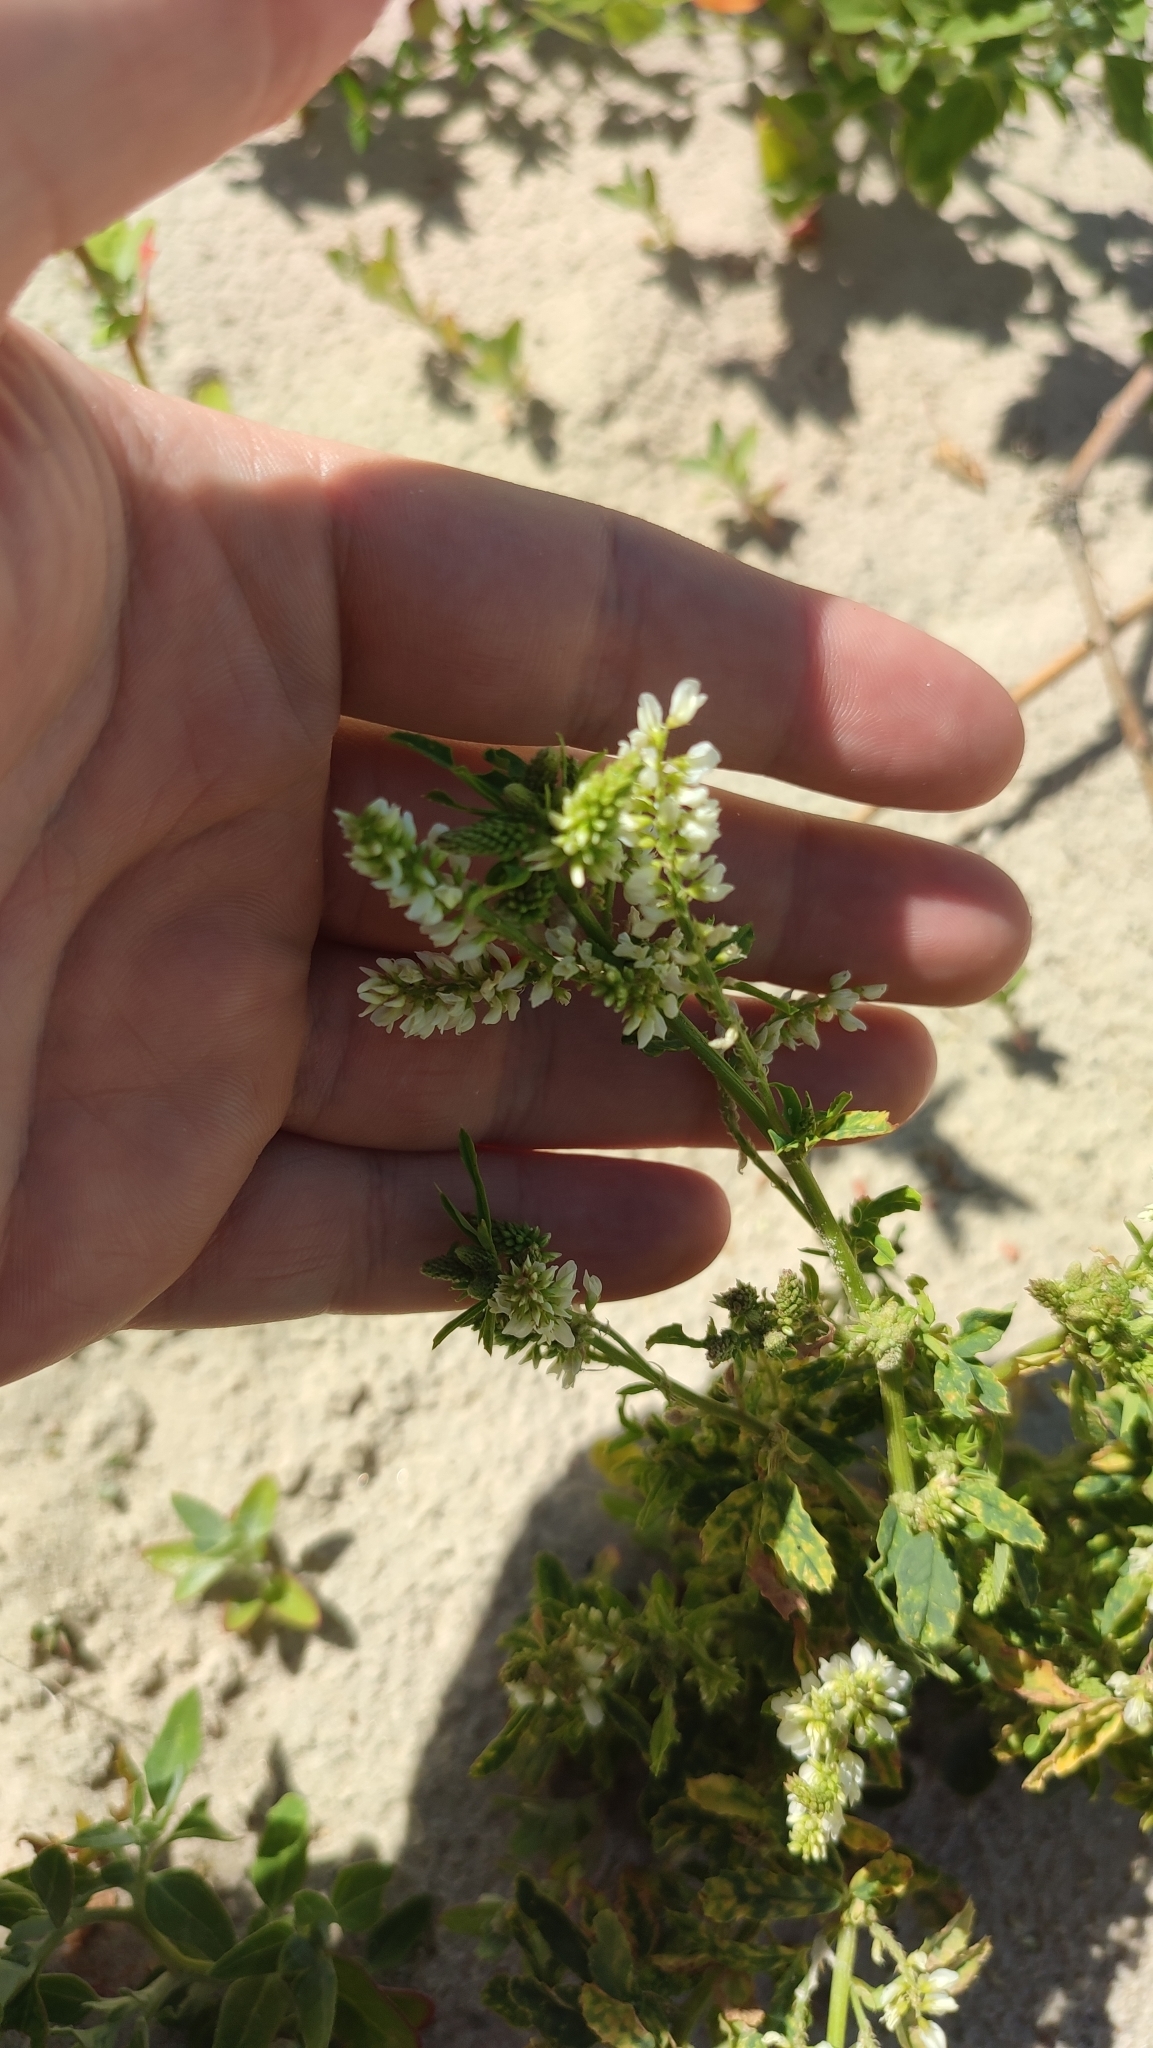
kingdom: Plantae
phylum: Tracheophyta
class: Magnoliopsida
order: Fabales
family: Fabaceae
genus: Melilotus
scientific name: Melilotus albus
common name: White melilot
